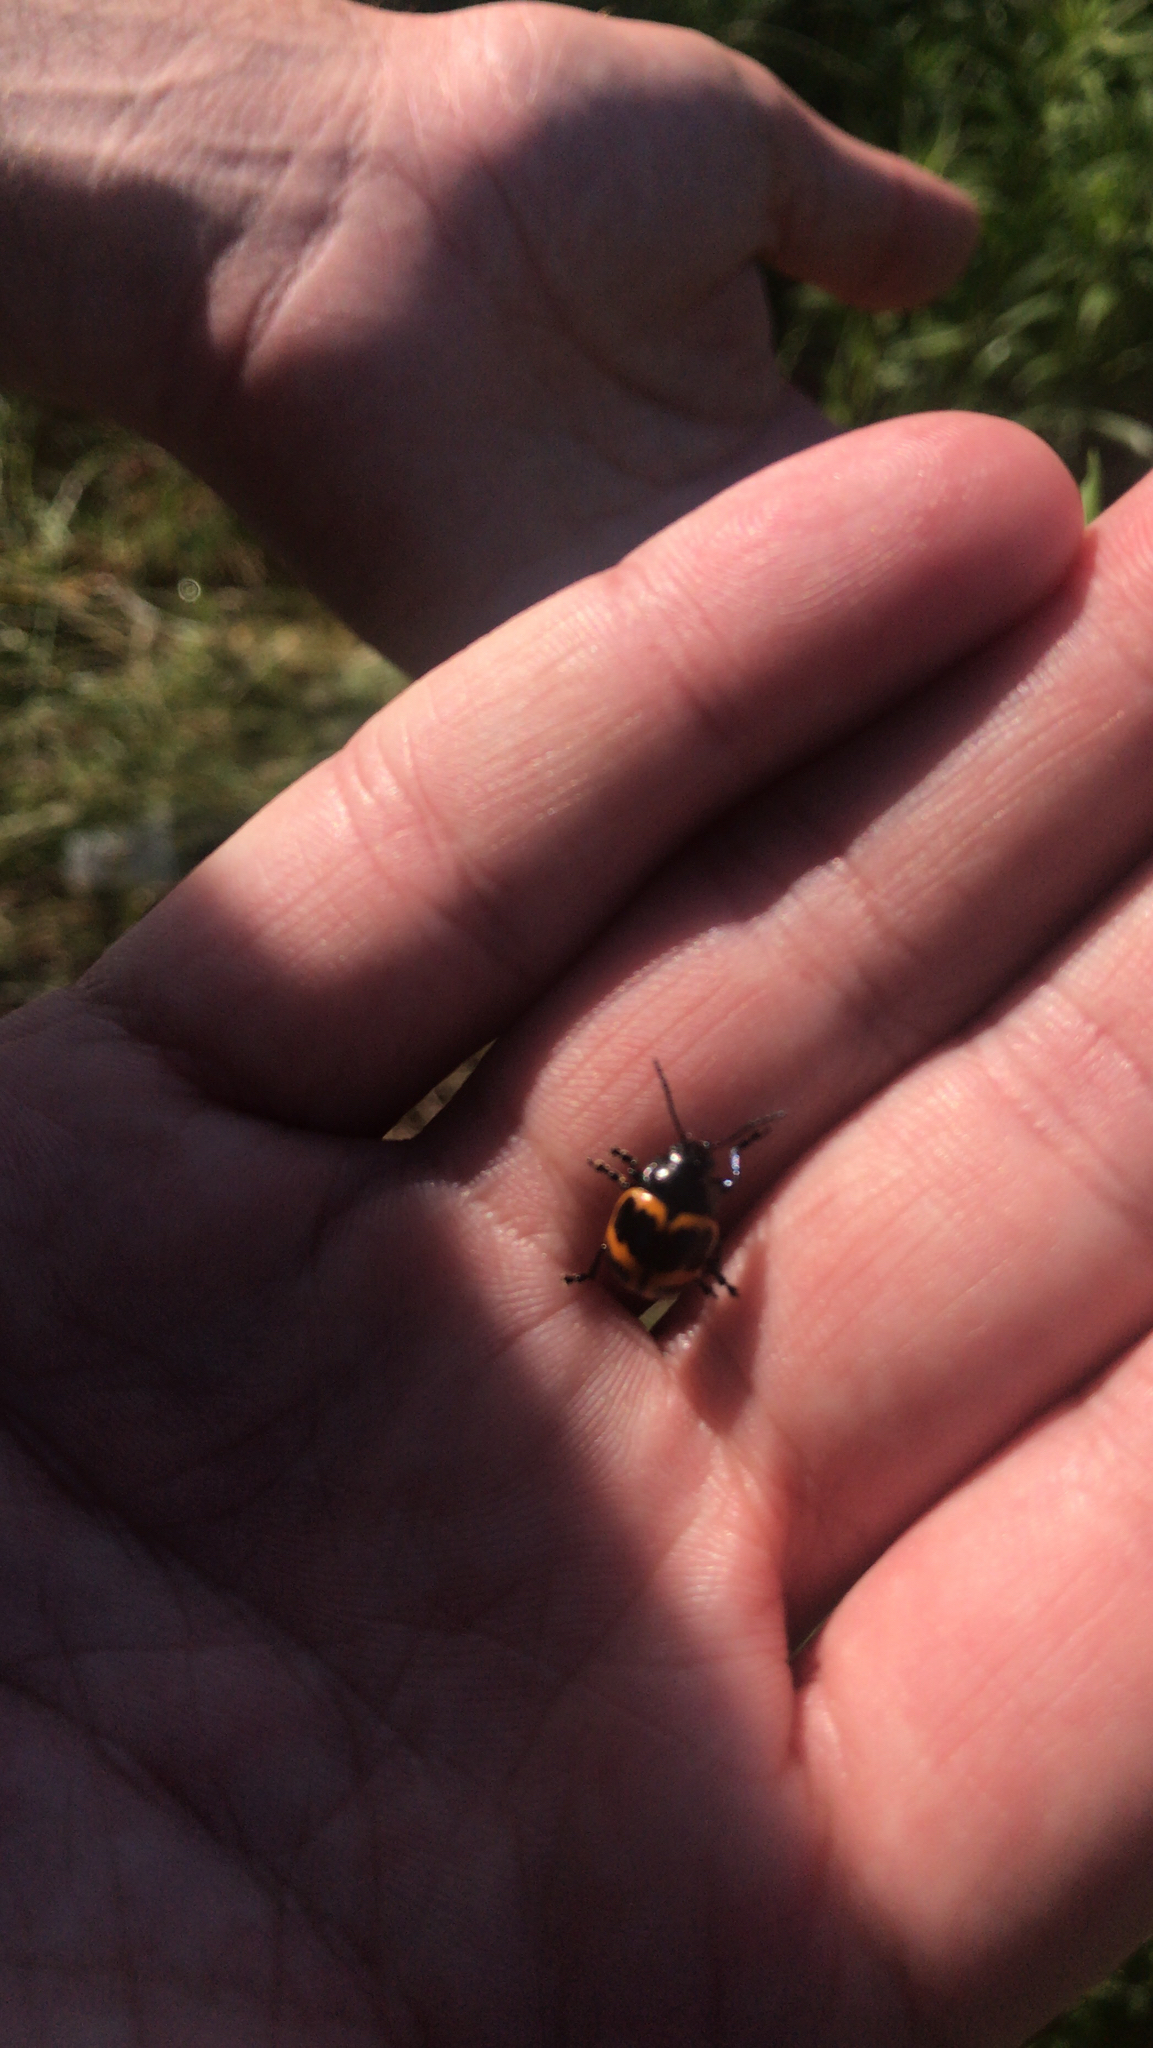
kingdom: Animalia
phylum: Arthropoda
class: Insecta
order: Coleoptera
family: Chrysomelidae
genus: Labidomera
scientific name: Labidomera clivicollis
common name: Swamp milkweed leaf beetle
